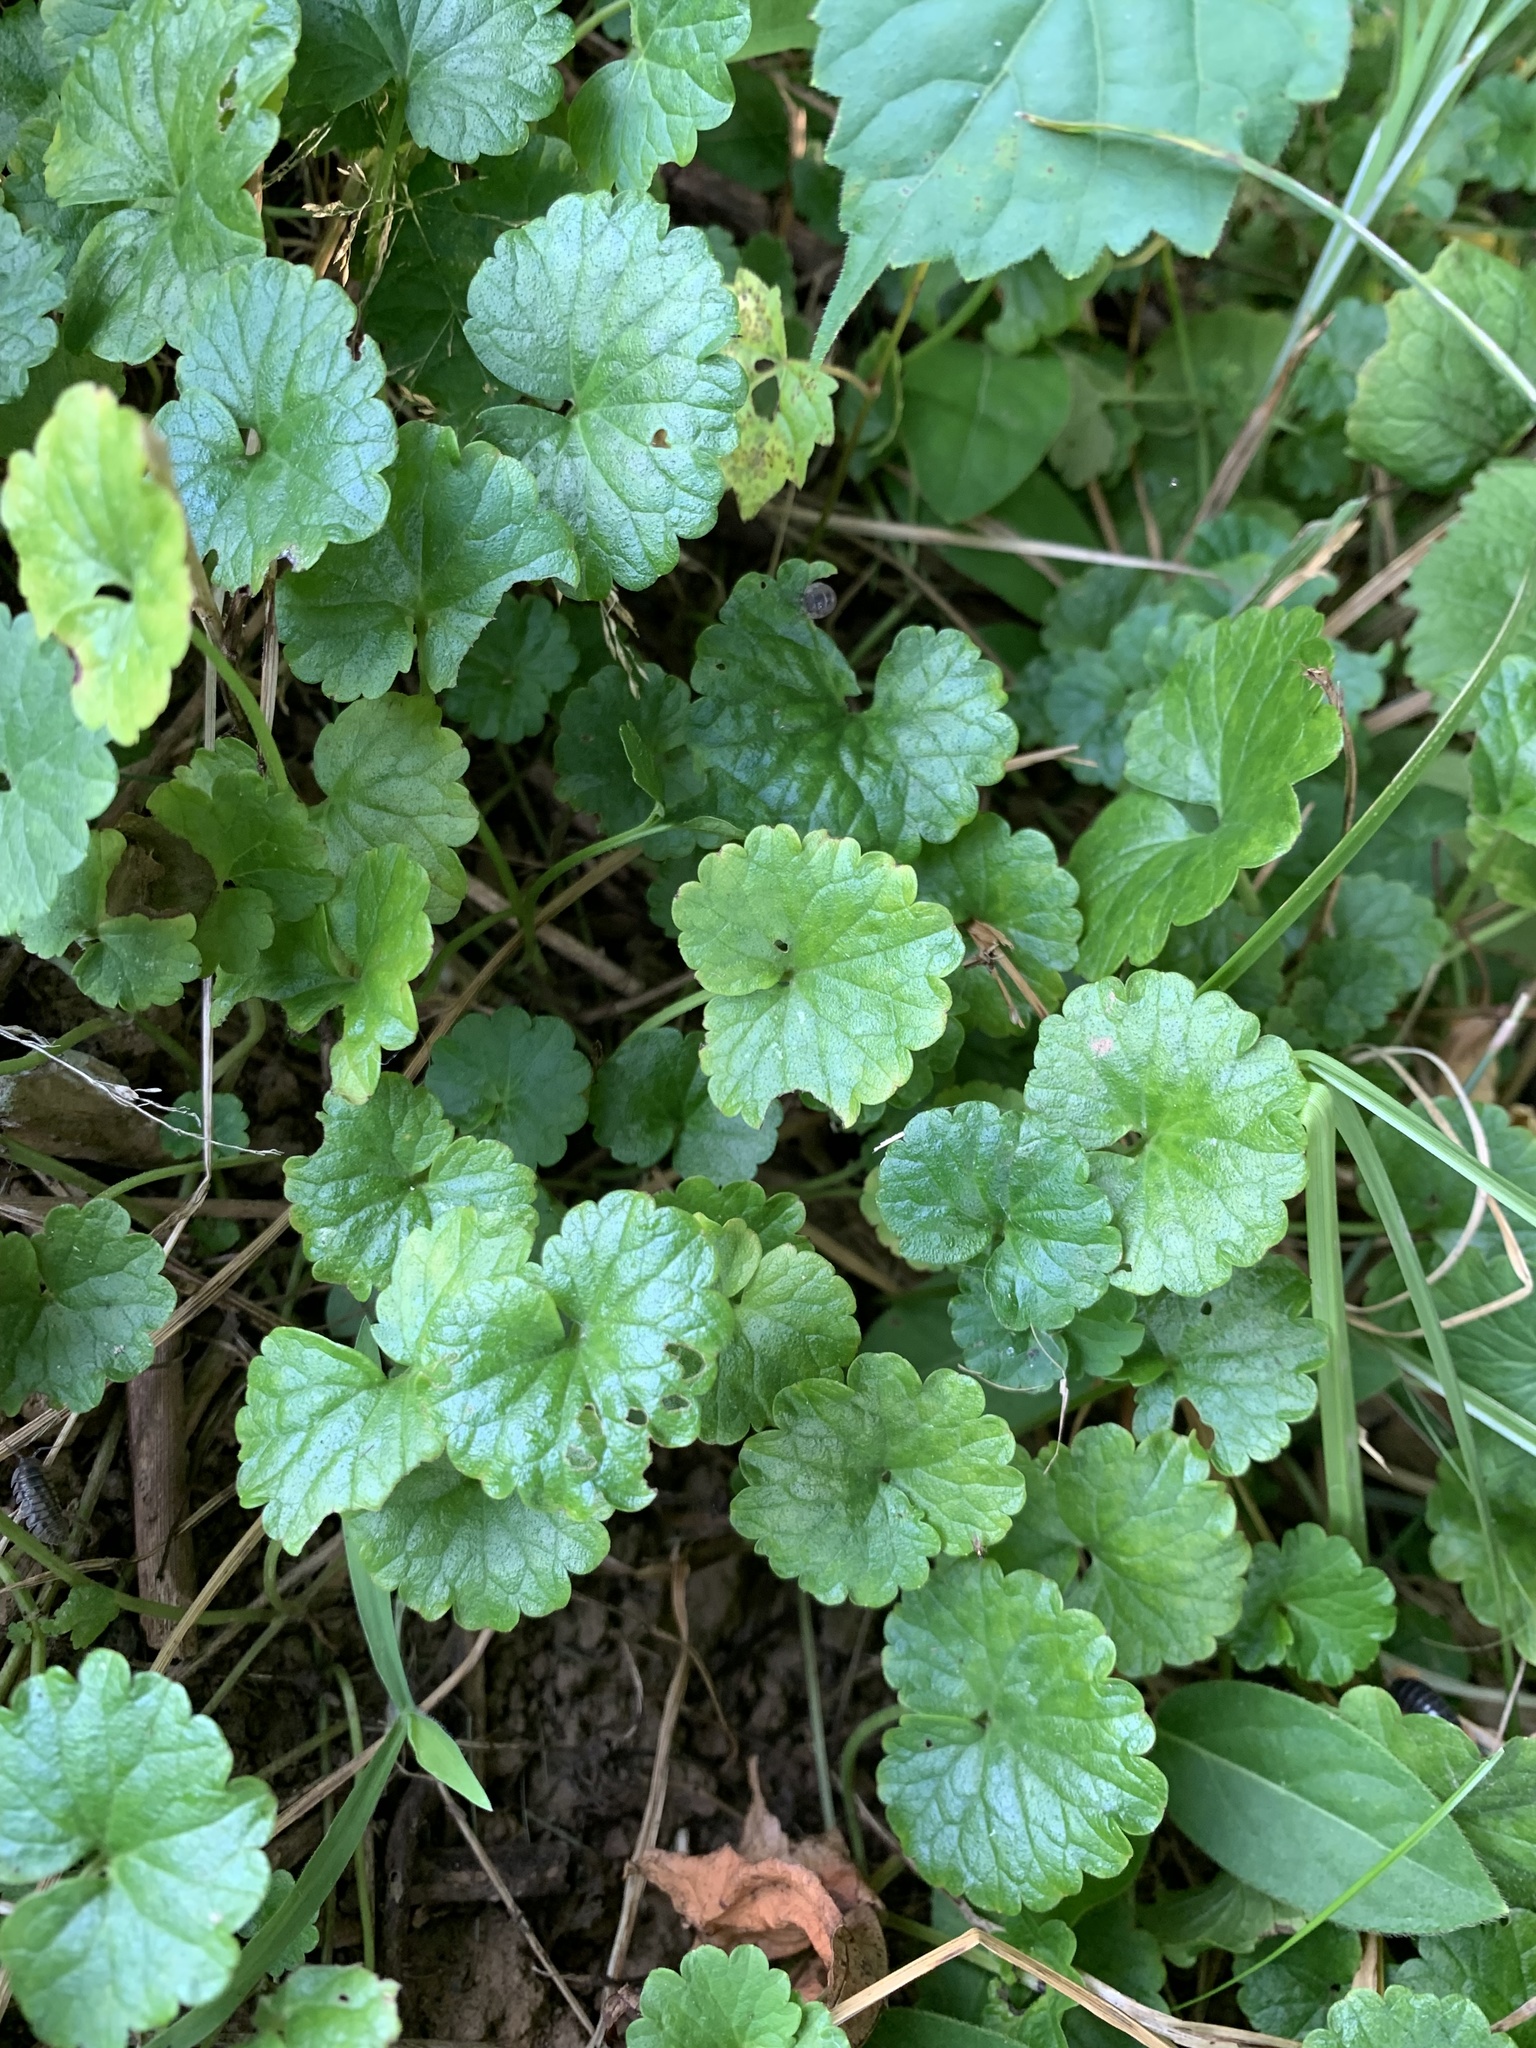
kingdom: Plantae
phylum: Tracheophyta
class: Magnoliopsida
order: Lamiales
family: Lamiaceae
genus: Glechoma
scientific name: Glechoma hederacea
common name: Ground ivy
